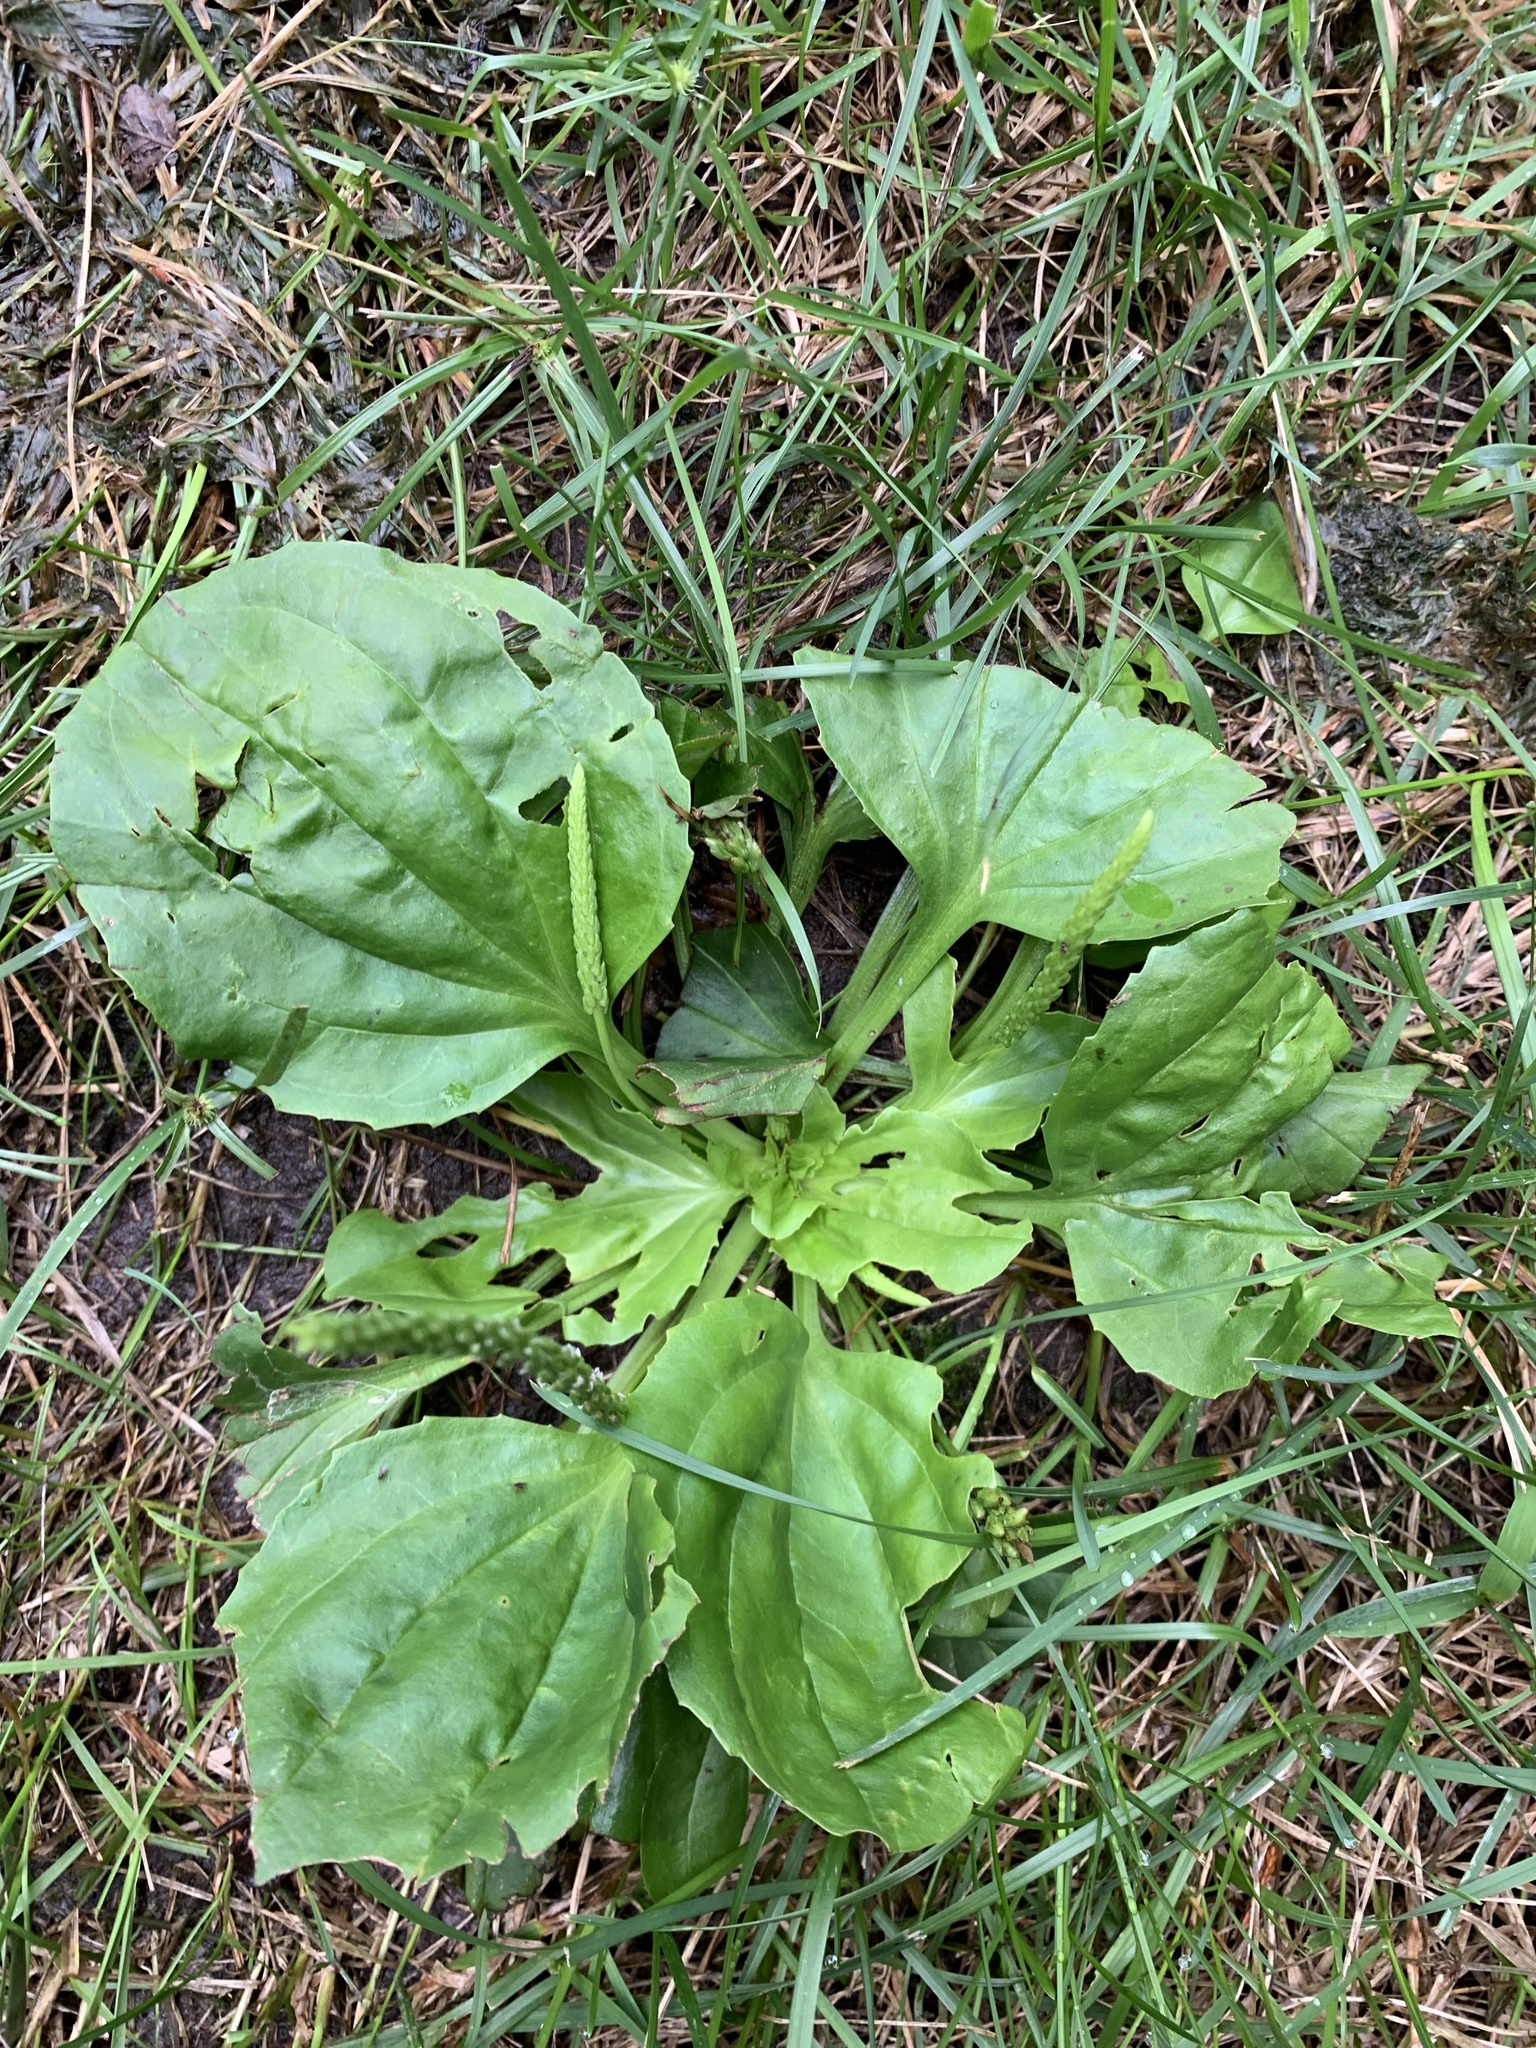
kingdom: Plantae
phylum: Tracheophyta
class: Magnoliopsida
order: Lamiales
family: Plantaginaceae
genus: Plantago
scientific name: Plantago major
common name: Common plantain
